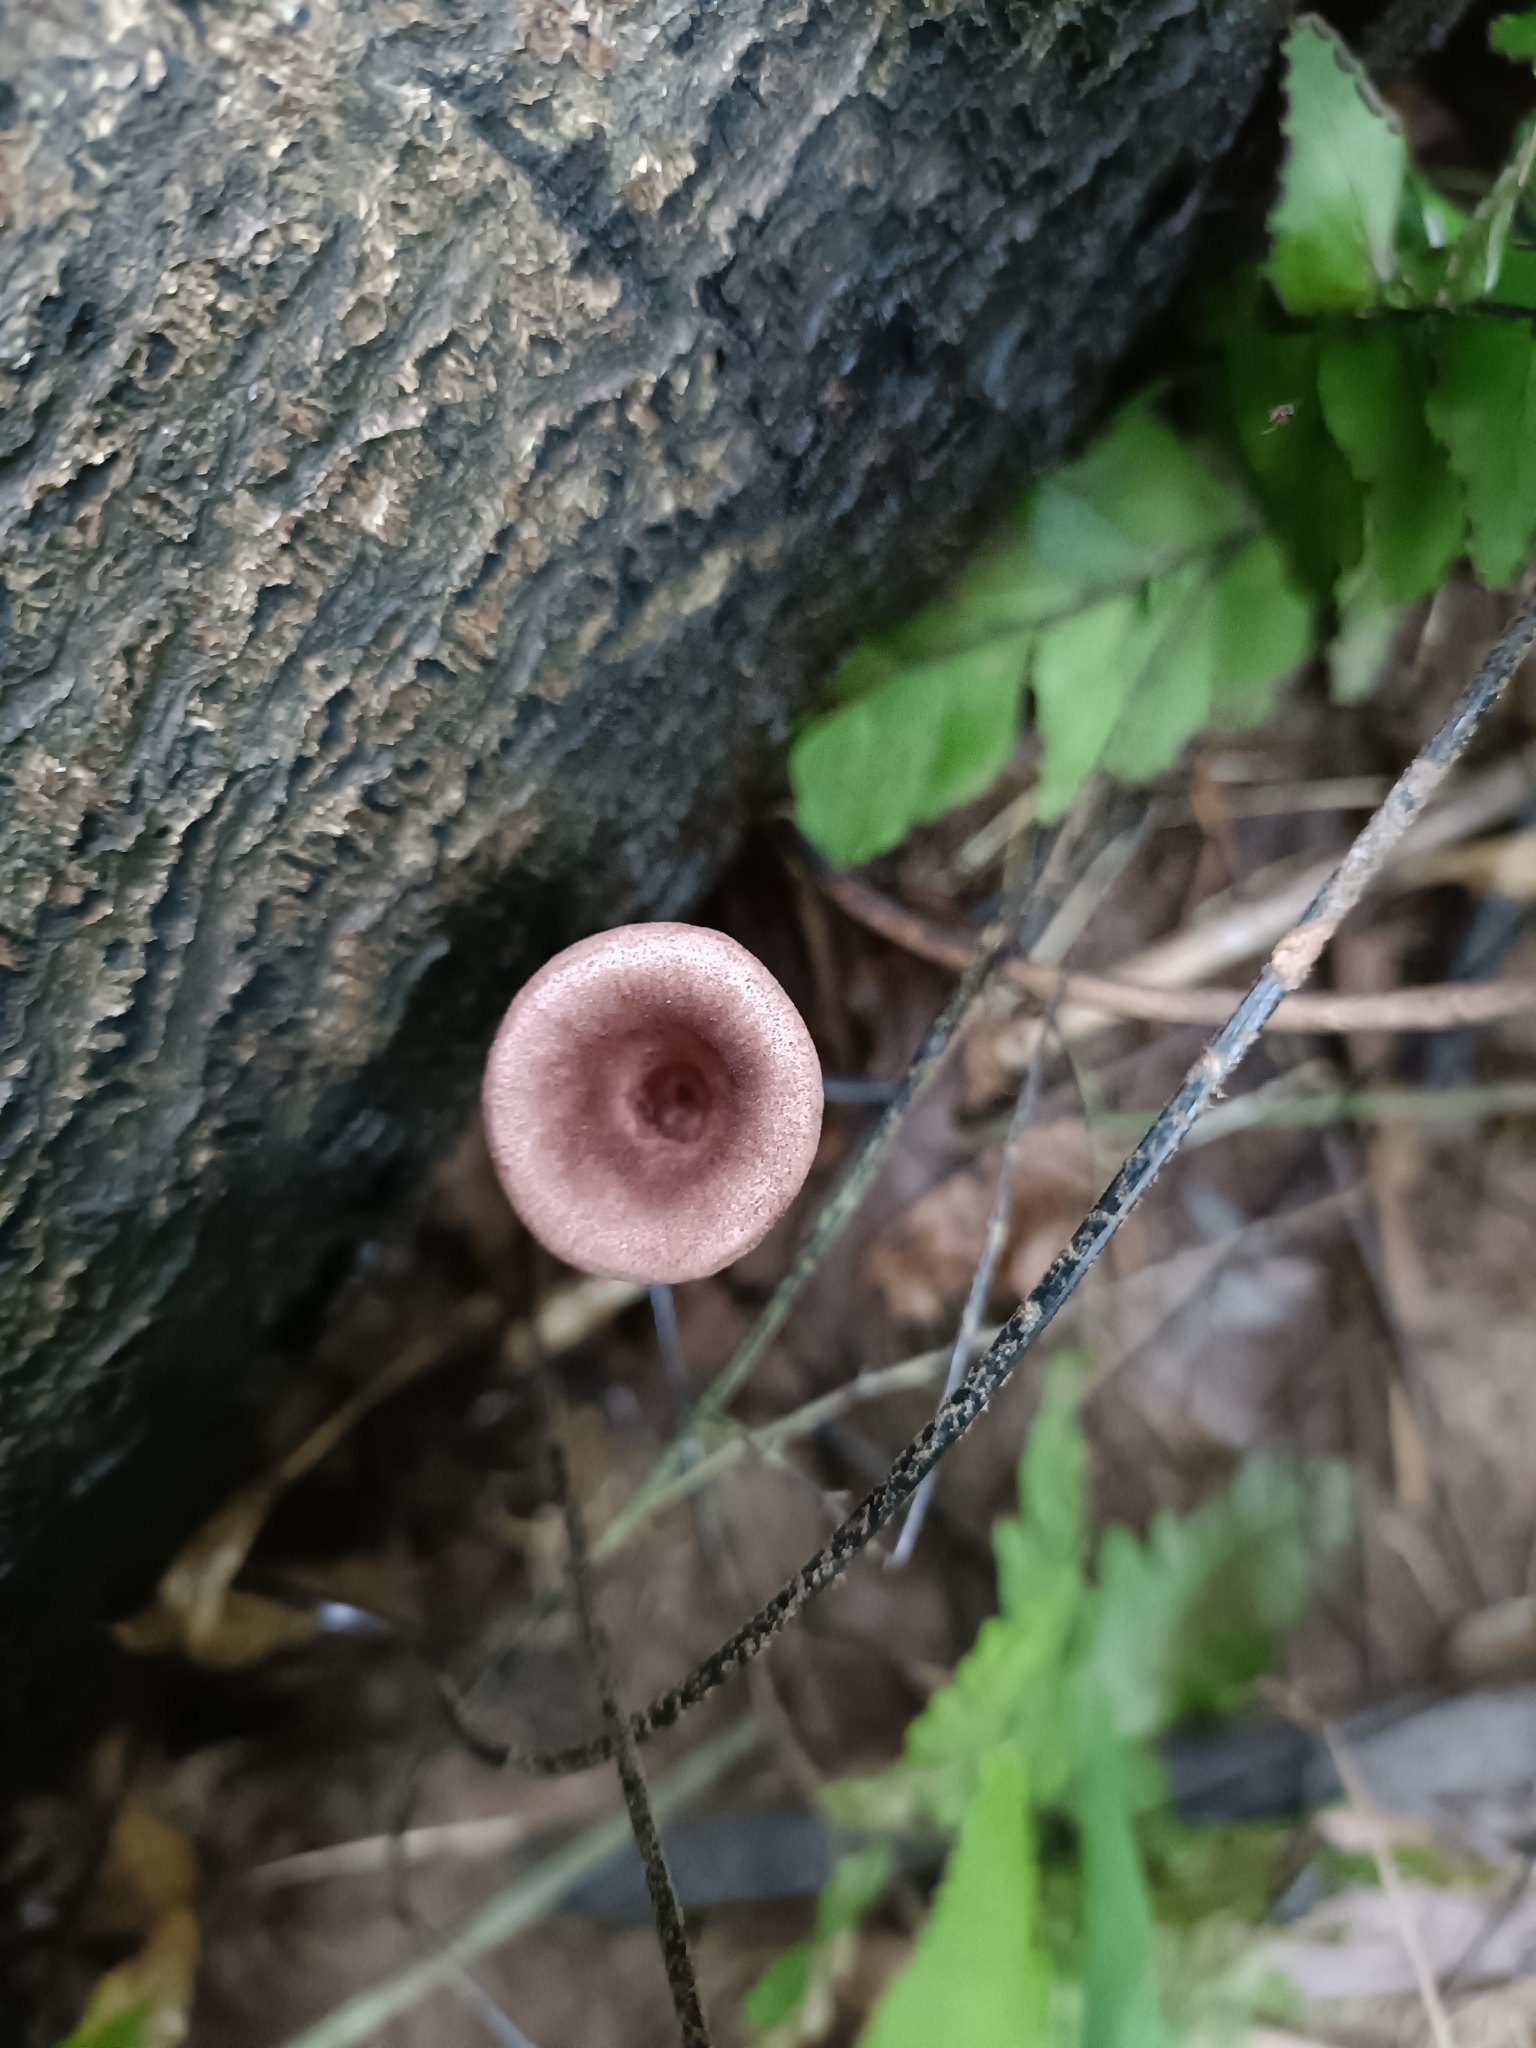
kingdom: Fungi
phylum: Basidiomycota
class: Agaricomycetes
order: Polyporales
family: Panaceae
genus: Panus
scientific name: Panus neostrigosus
